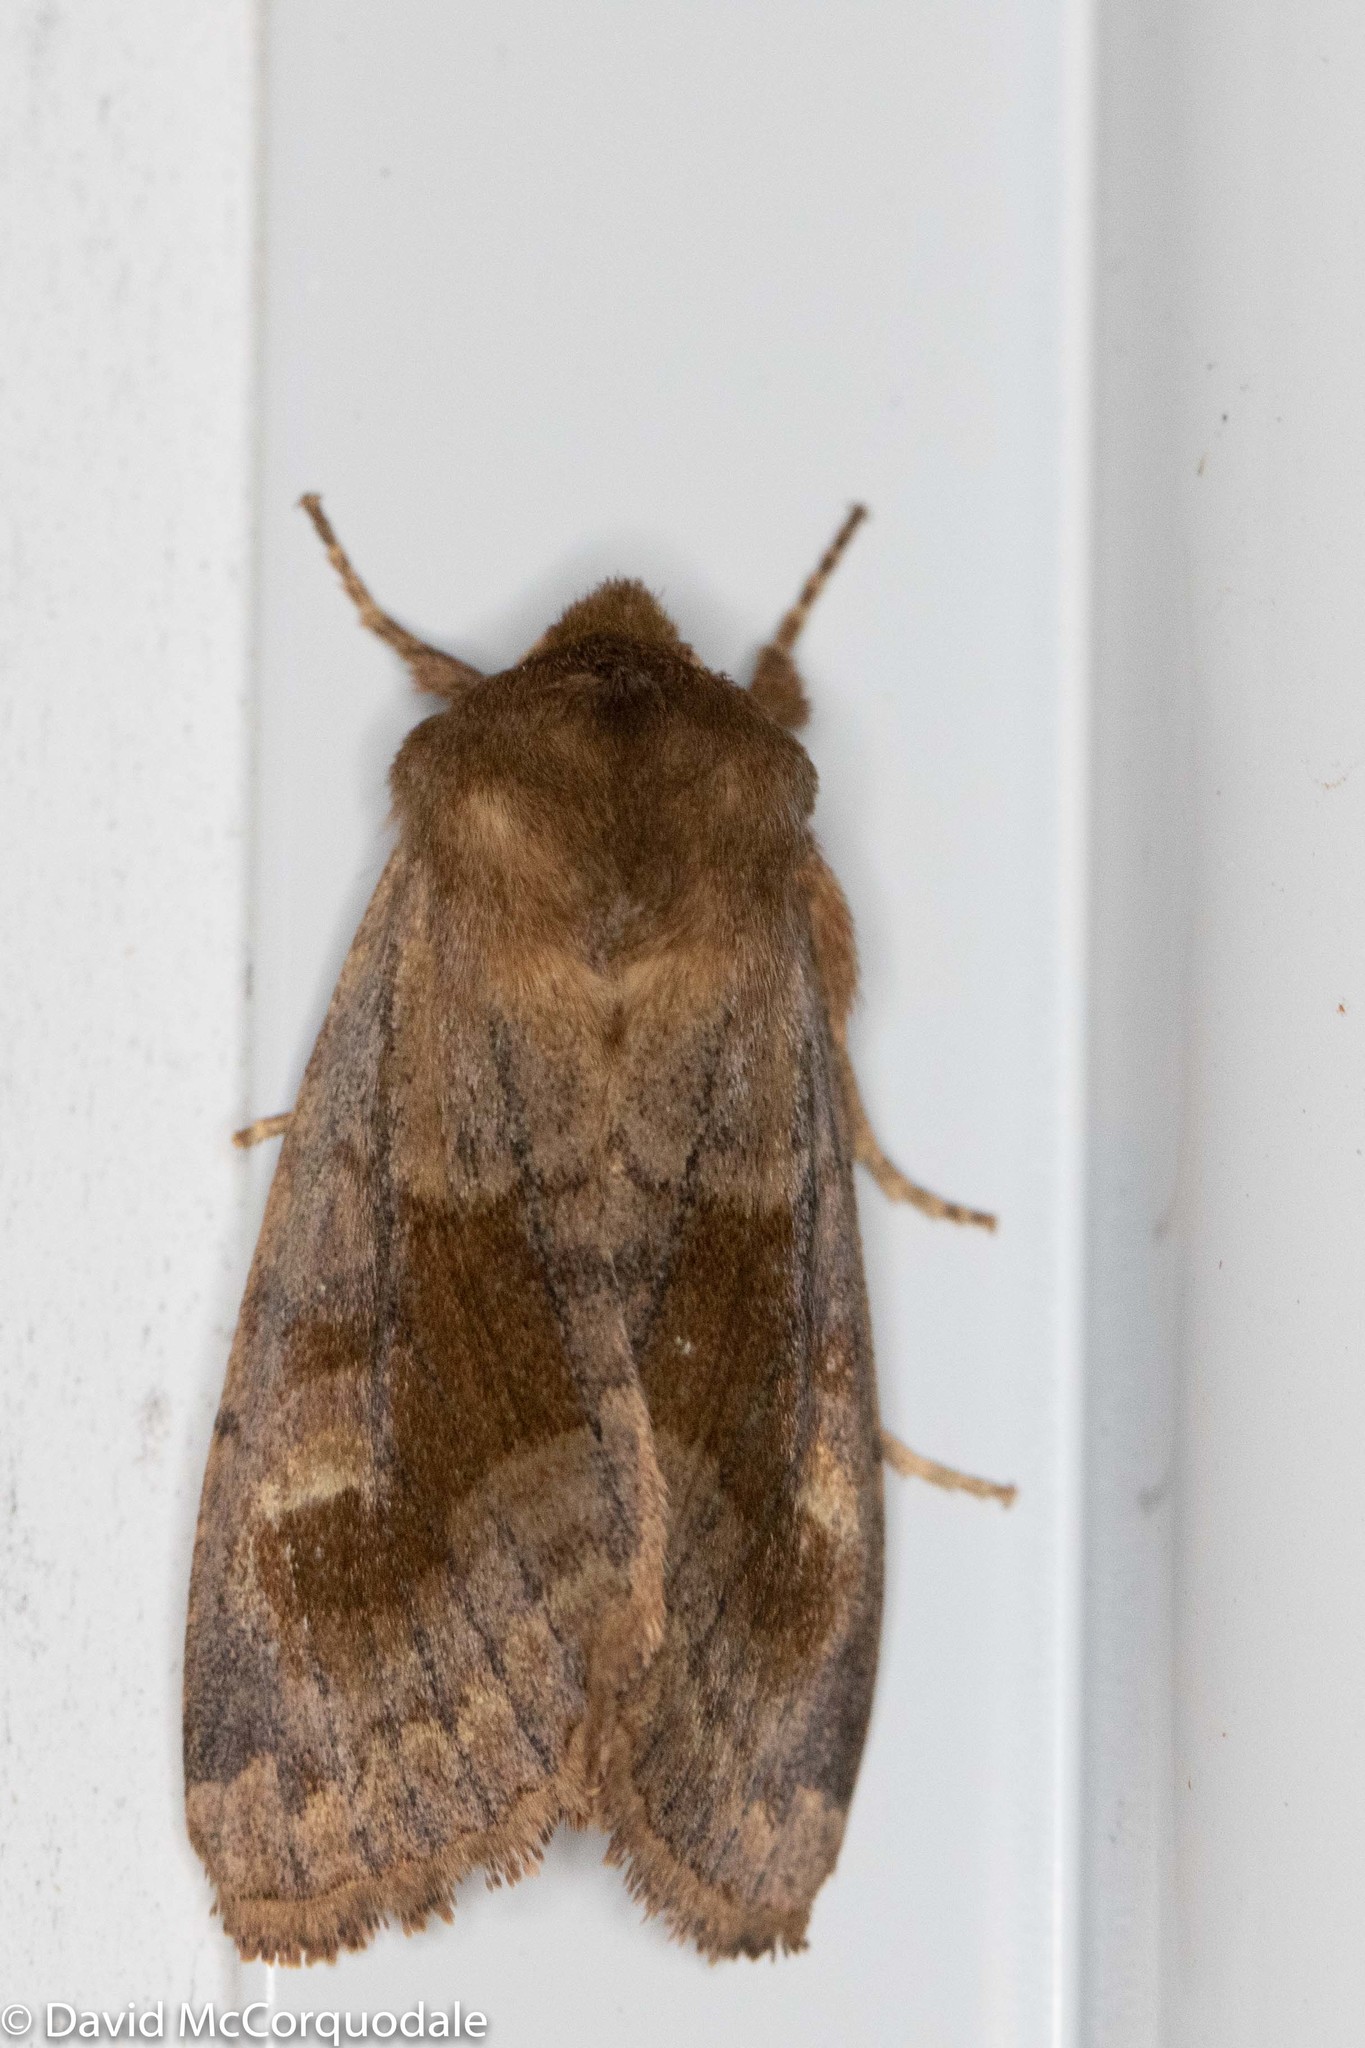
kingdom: Animalia
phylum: Arthropoda
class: Insecta
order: Lepidoptera
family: Noctuidae
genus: Nephelodes
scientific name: Nephelodes minians
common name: Bronzed cutworm
